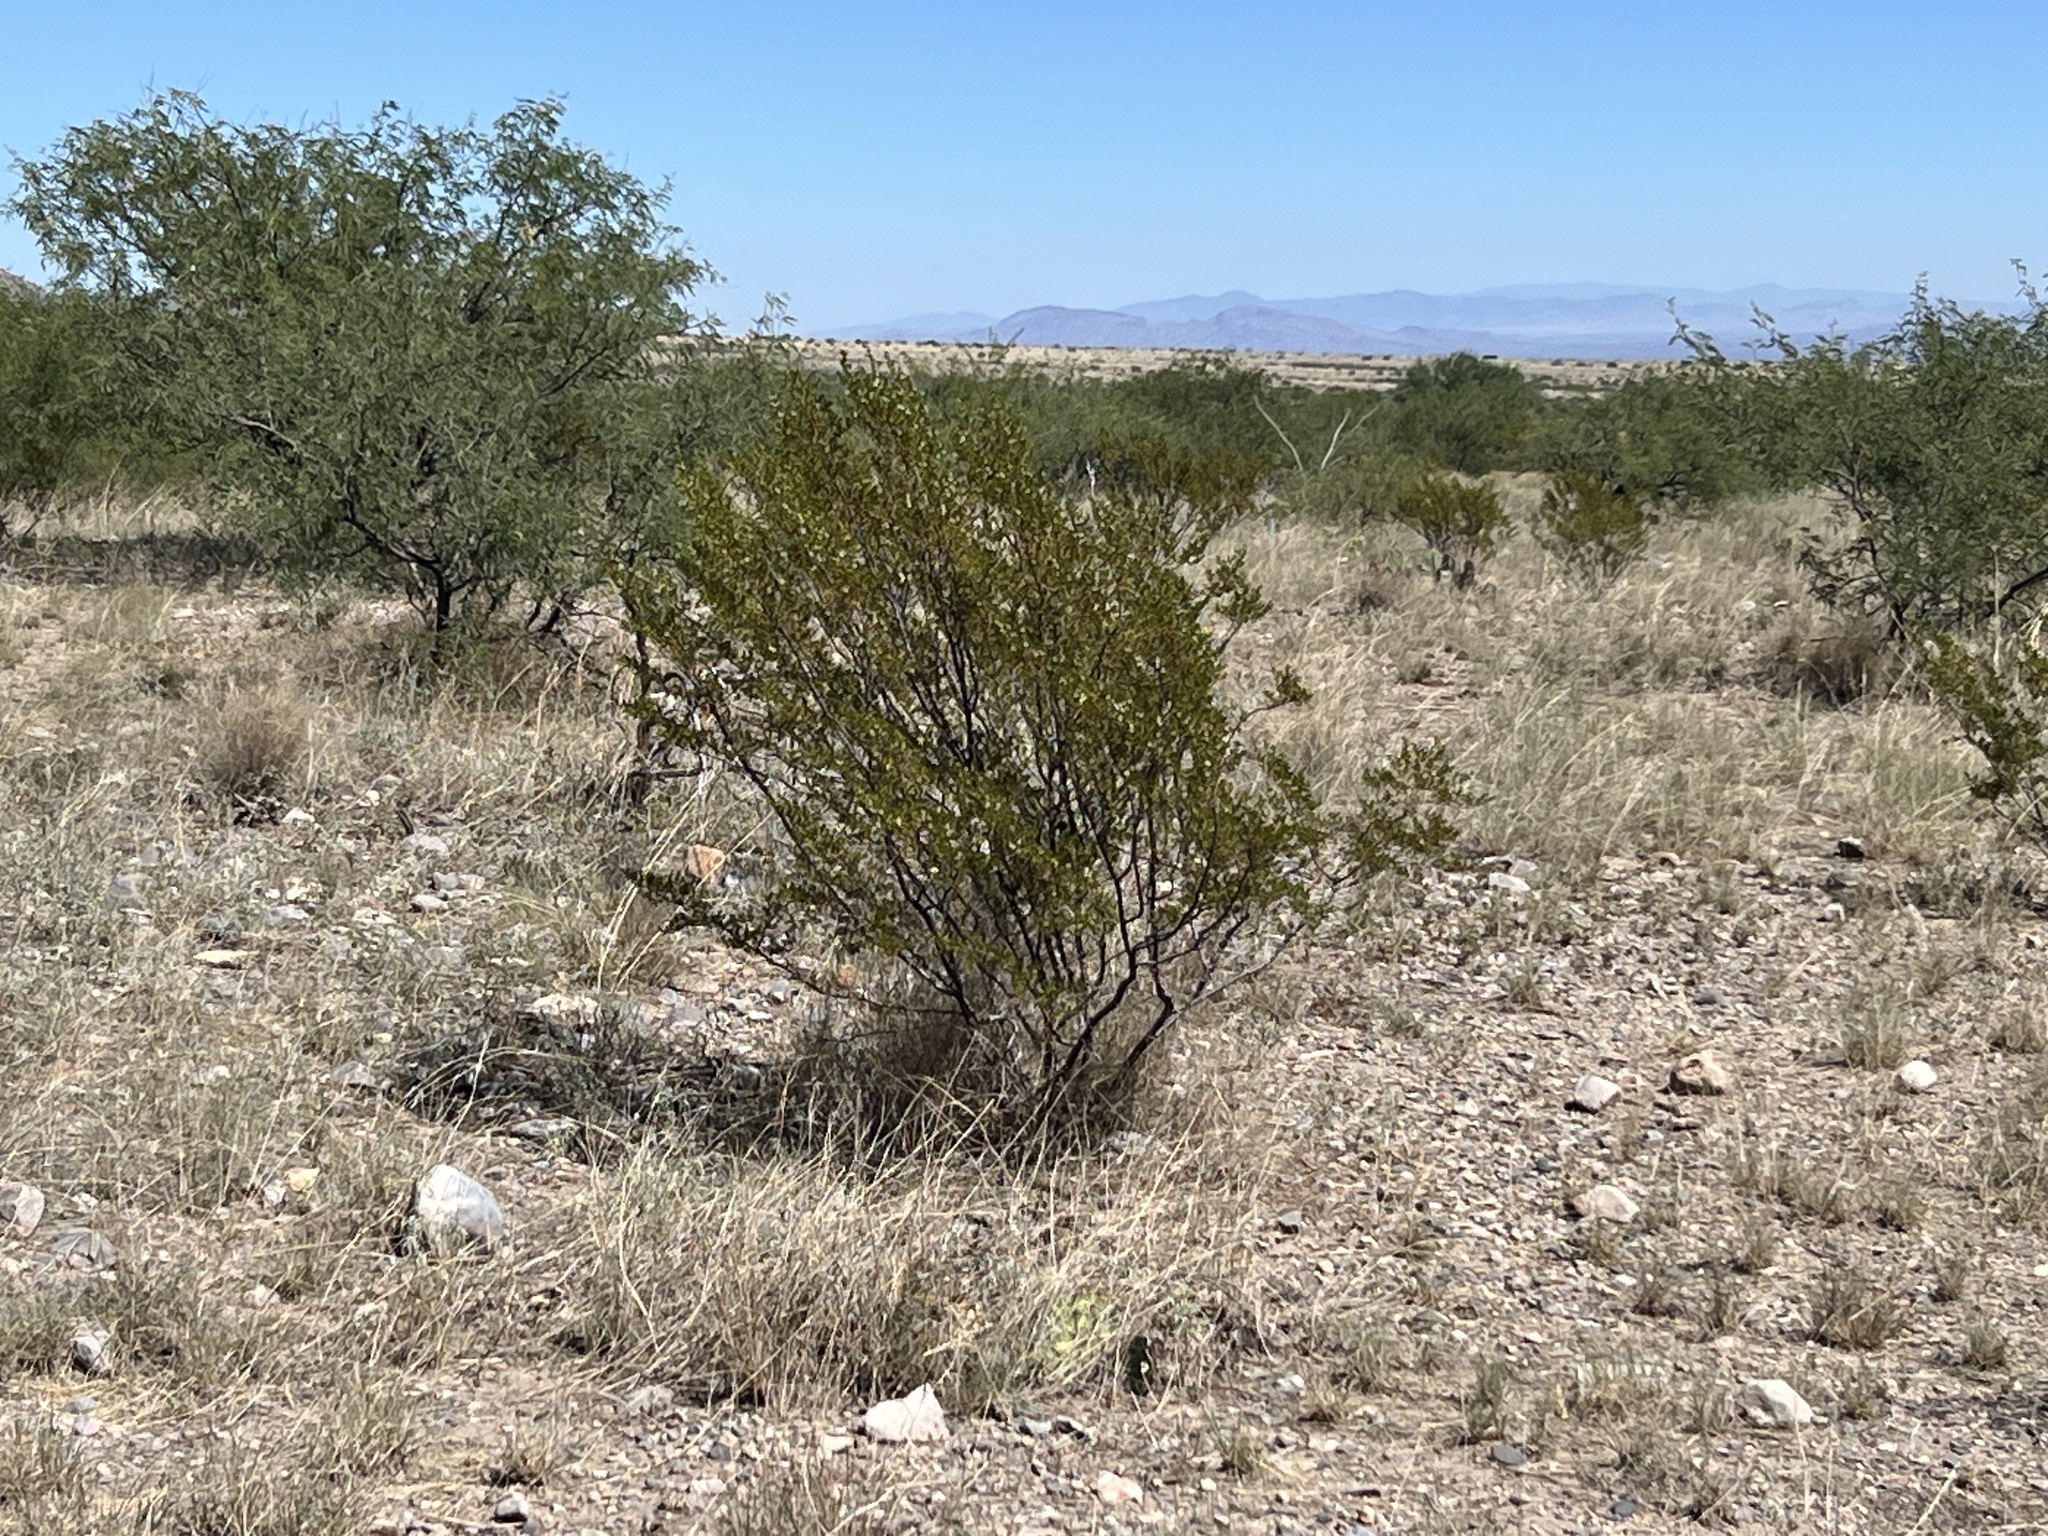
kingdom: Plantae
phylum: Tracheophyta
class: Magnoliopsida
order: Zygophyllales
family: Zygophyllaceae
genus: Larrea
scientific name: Larrea tridentata
